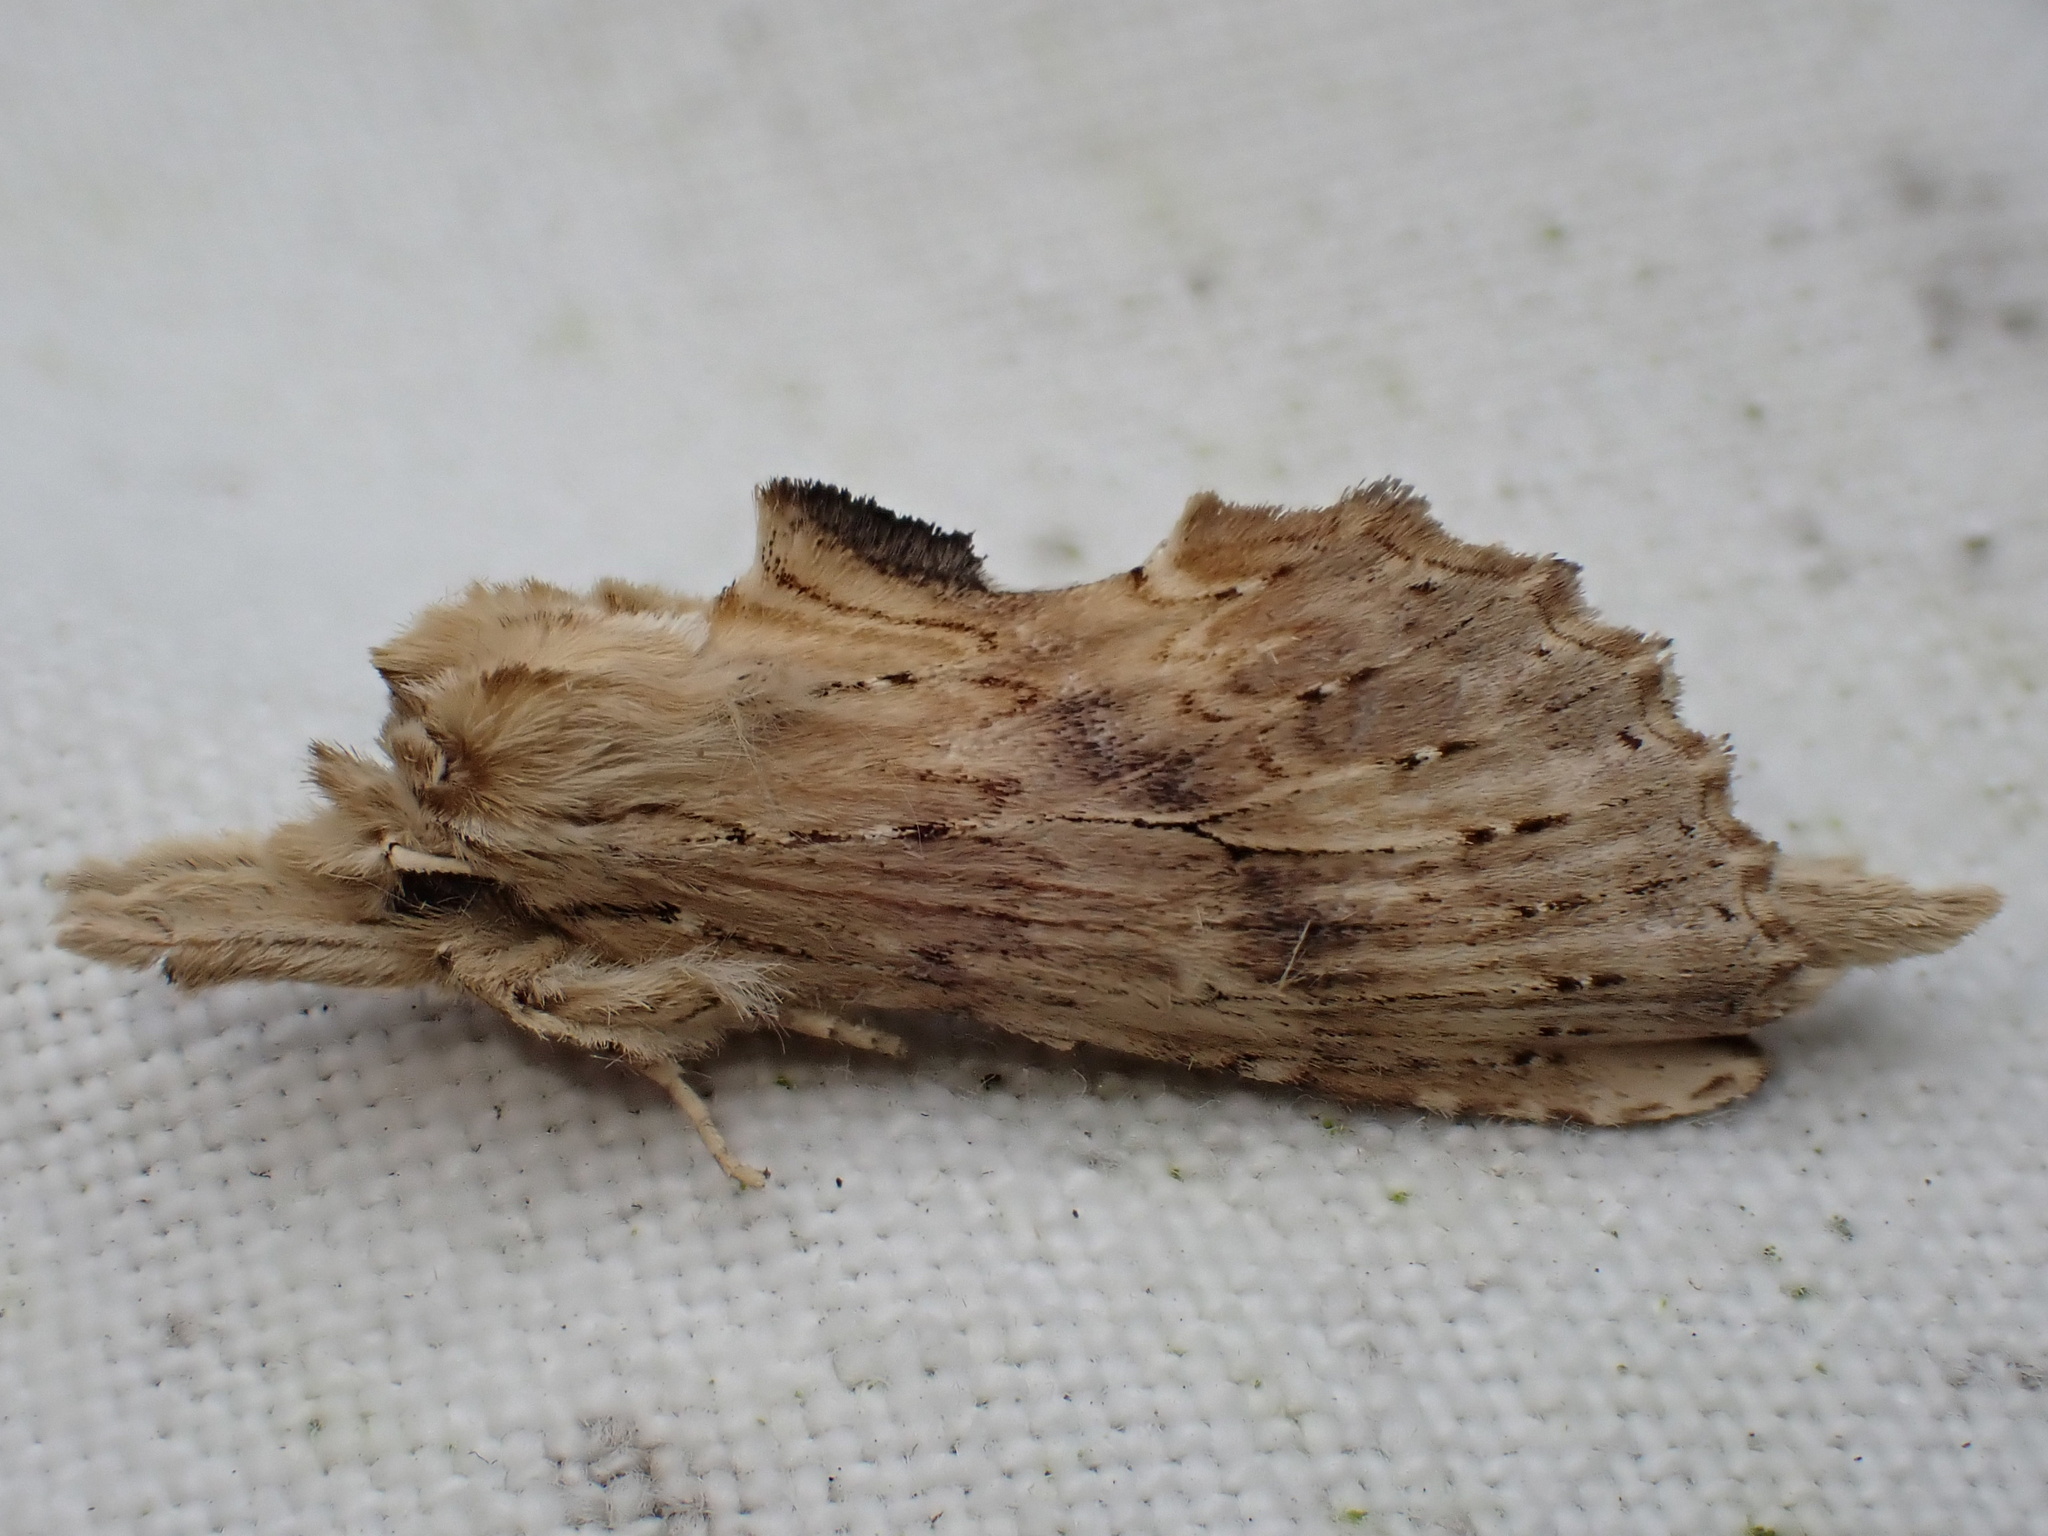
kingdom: Animalia
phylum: Arthropoda
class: Insecta
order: Lepidoptera
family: Notodontidae
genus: Pterostoma
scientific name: Pterostoma palpina
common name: Pale prominent
